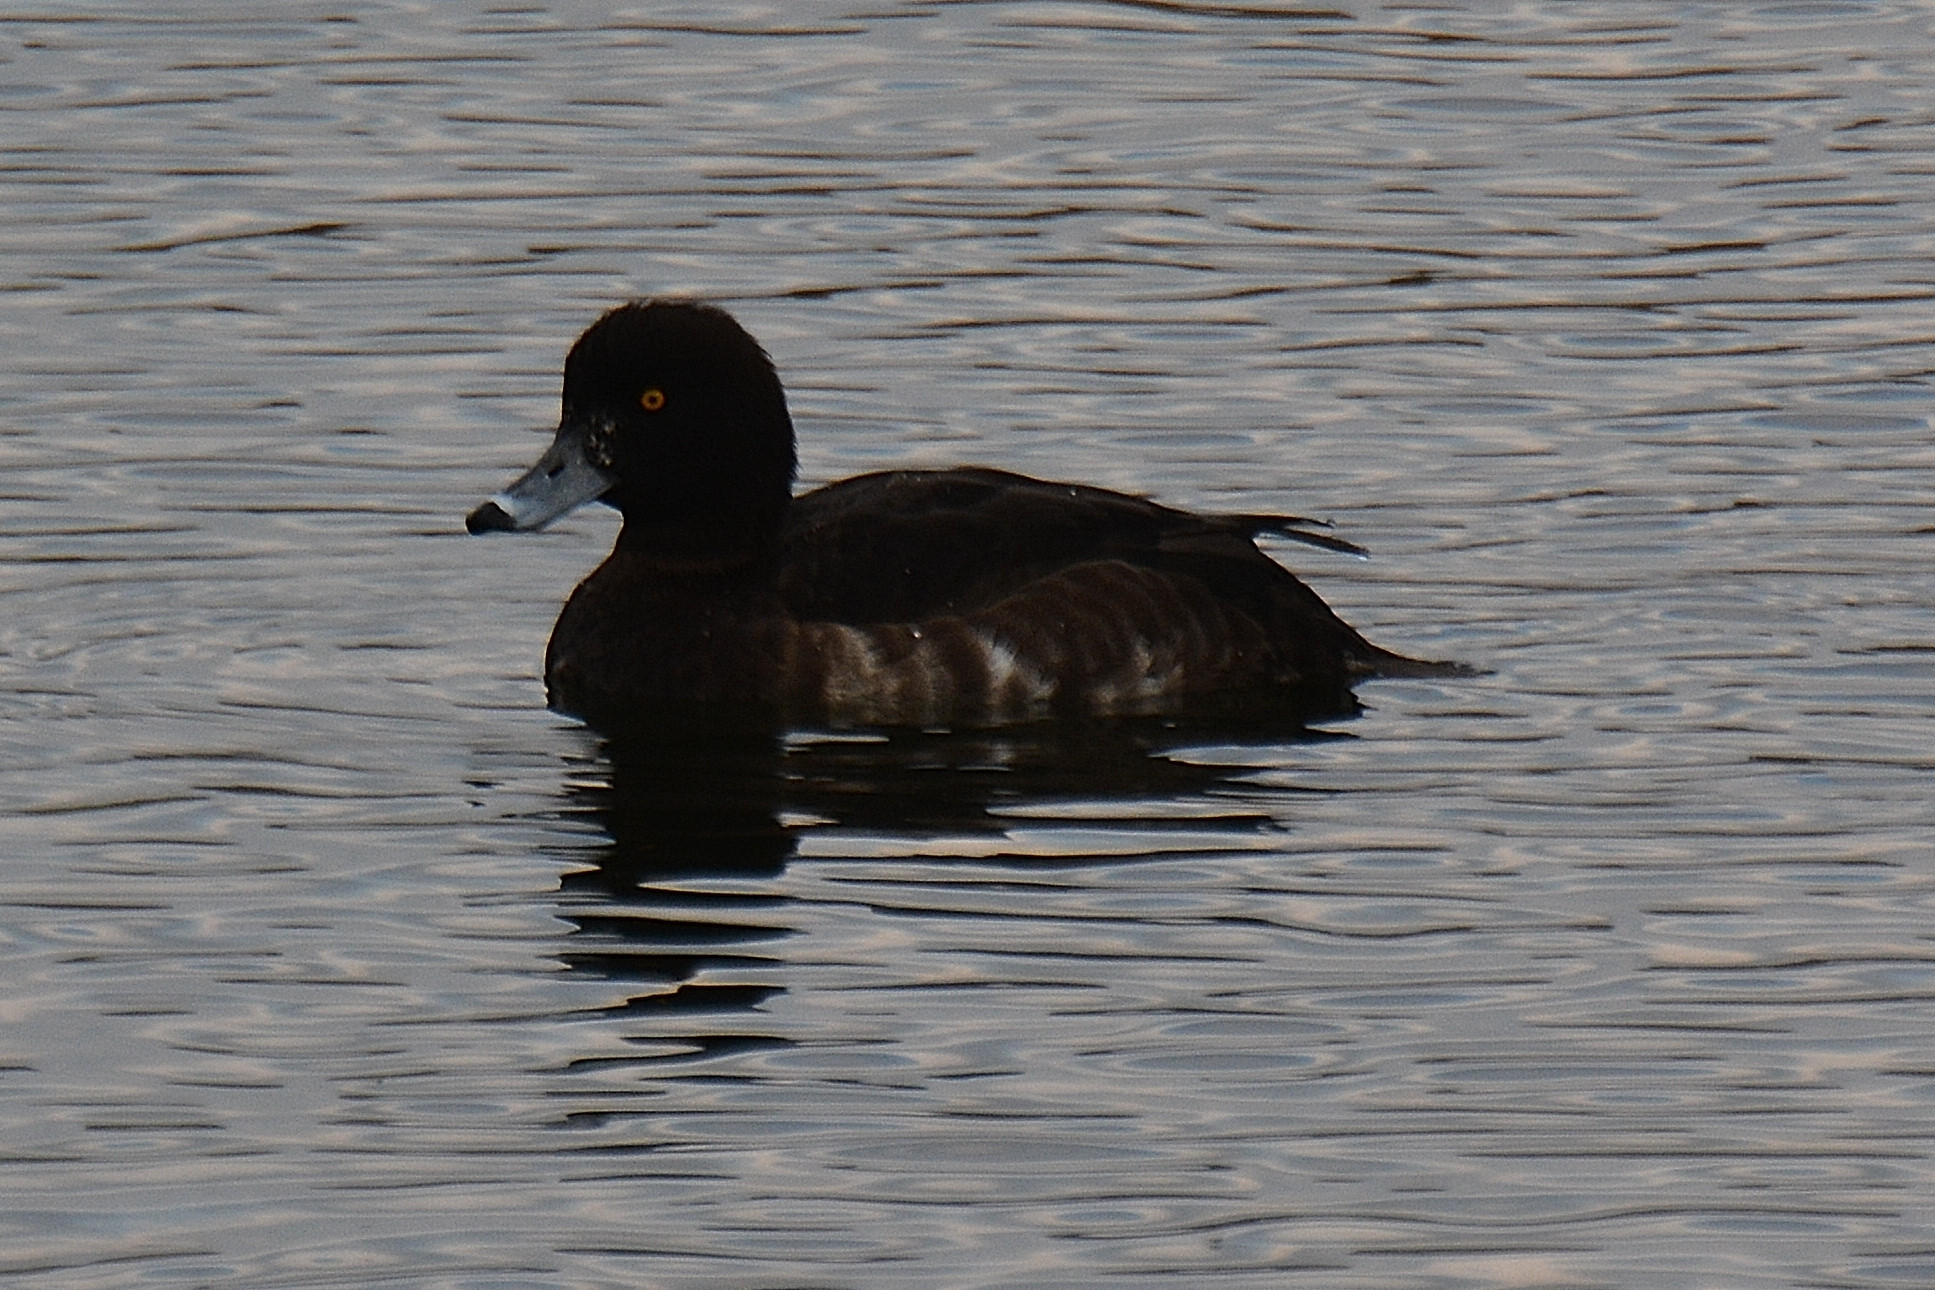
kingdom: Animalia
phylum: Chordata
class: Aves
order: Anseriformes
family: Anatidae
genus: Aythya
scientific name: Aythya fuligula
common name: Tufted duck
